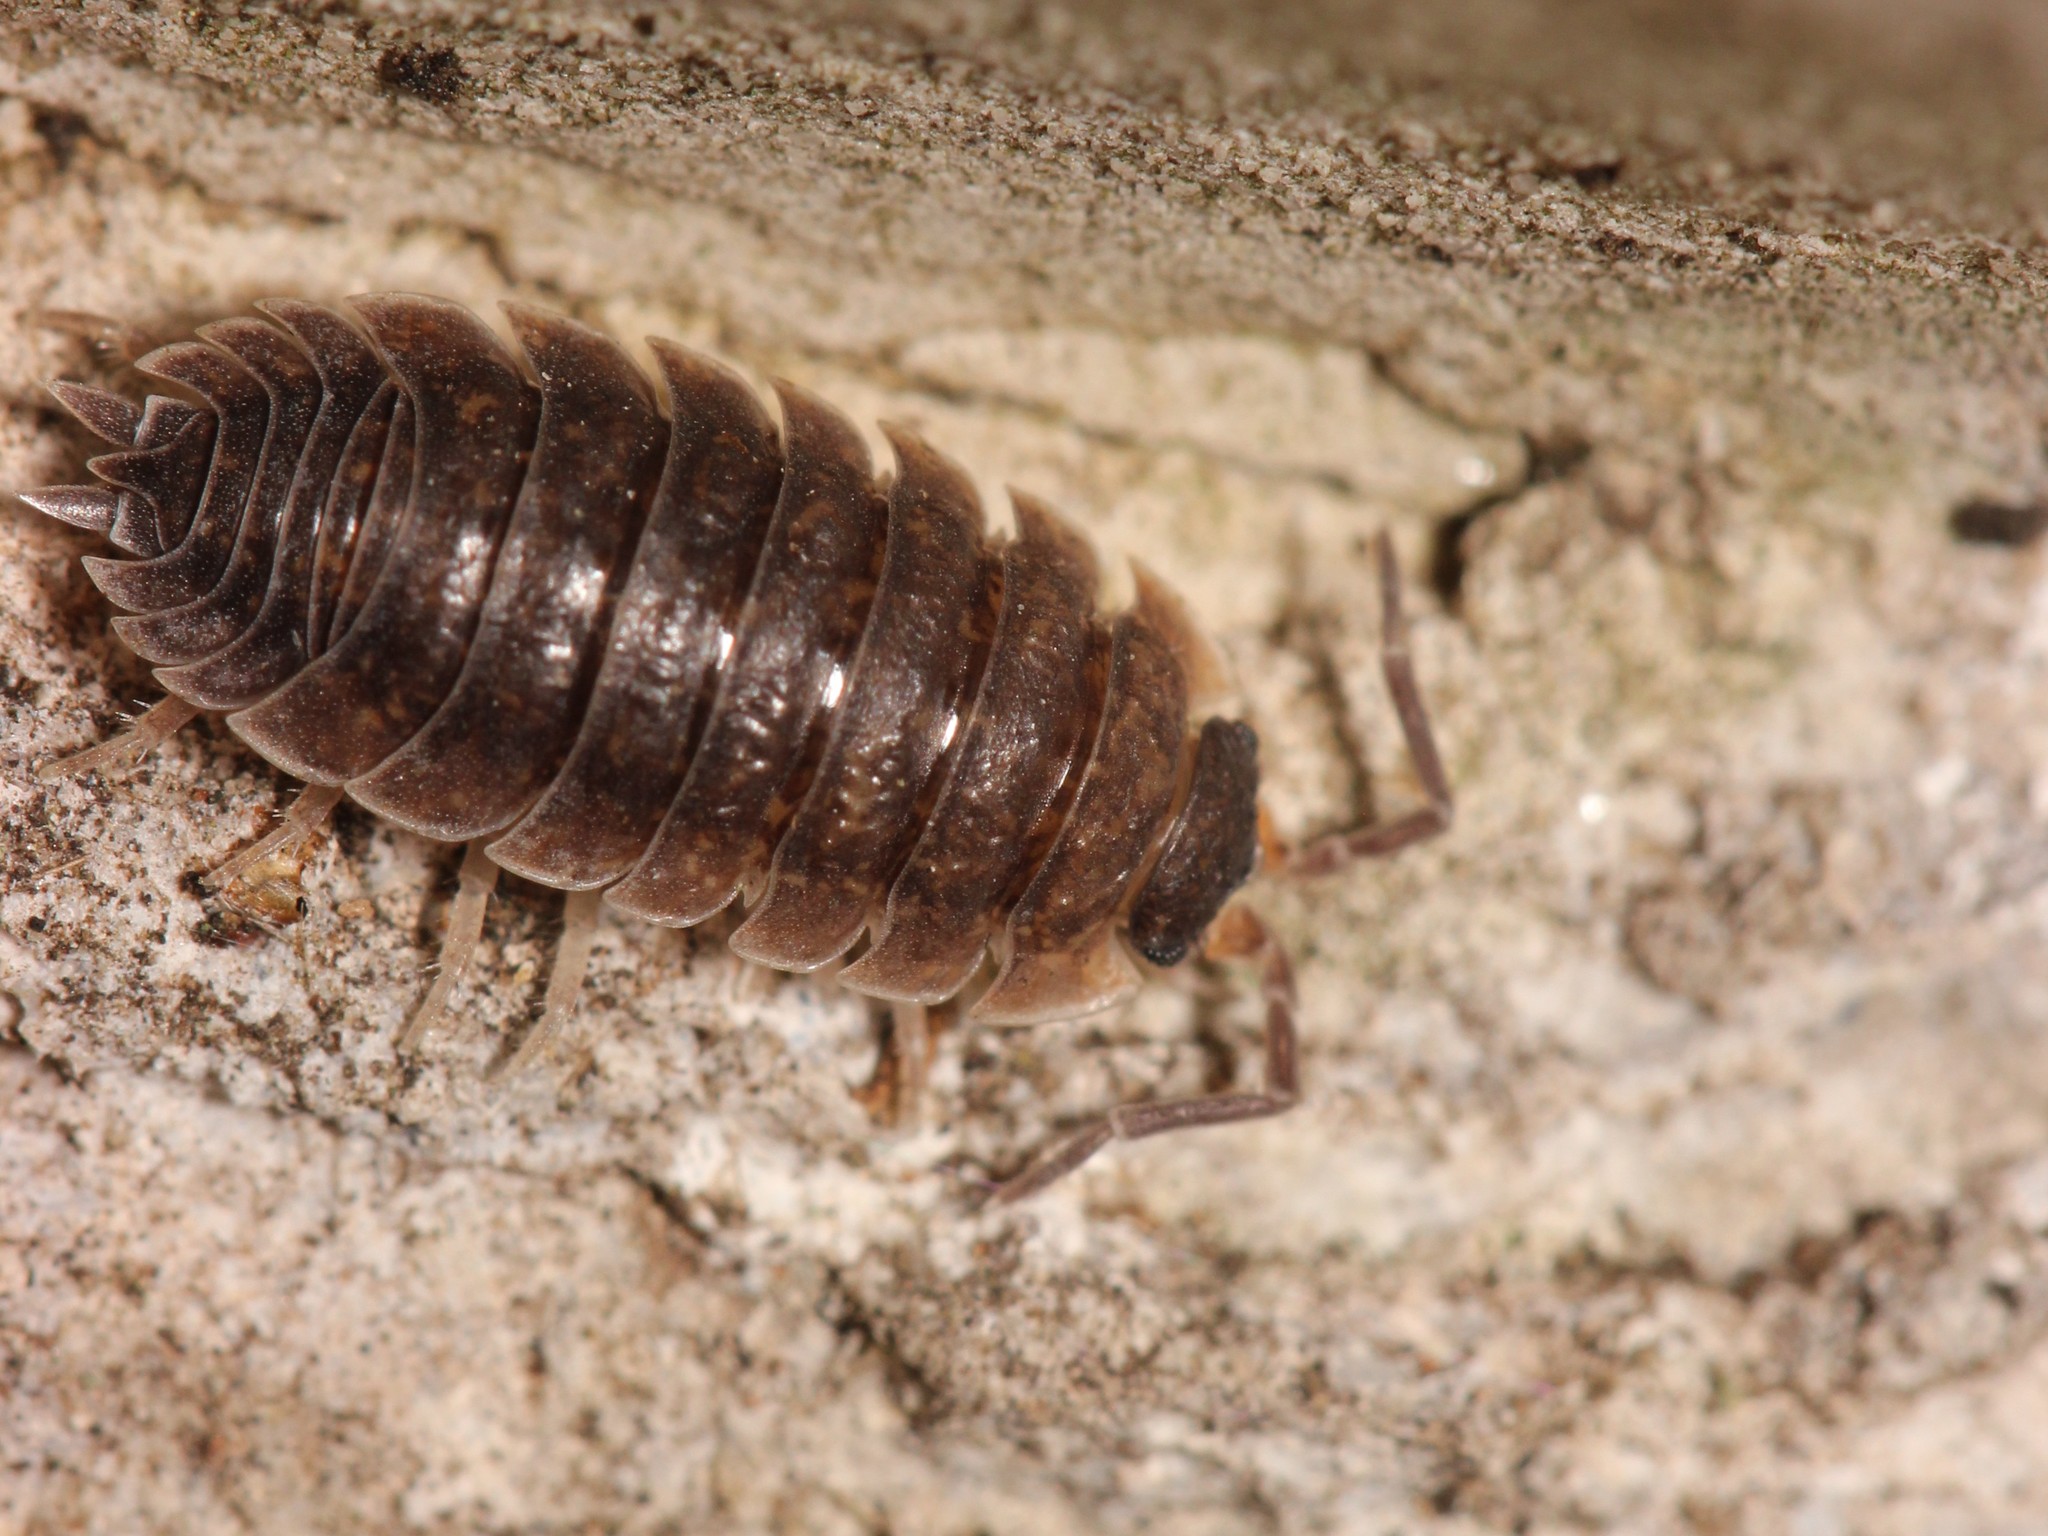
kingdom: Animalia
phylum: Arthropoda
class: Malacostraca
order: Isopoda
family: Porcellionidae
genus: Porcellio
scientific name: Porcellio scaber
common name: Common rough woodlouse
